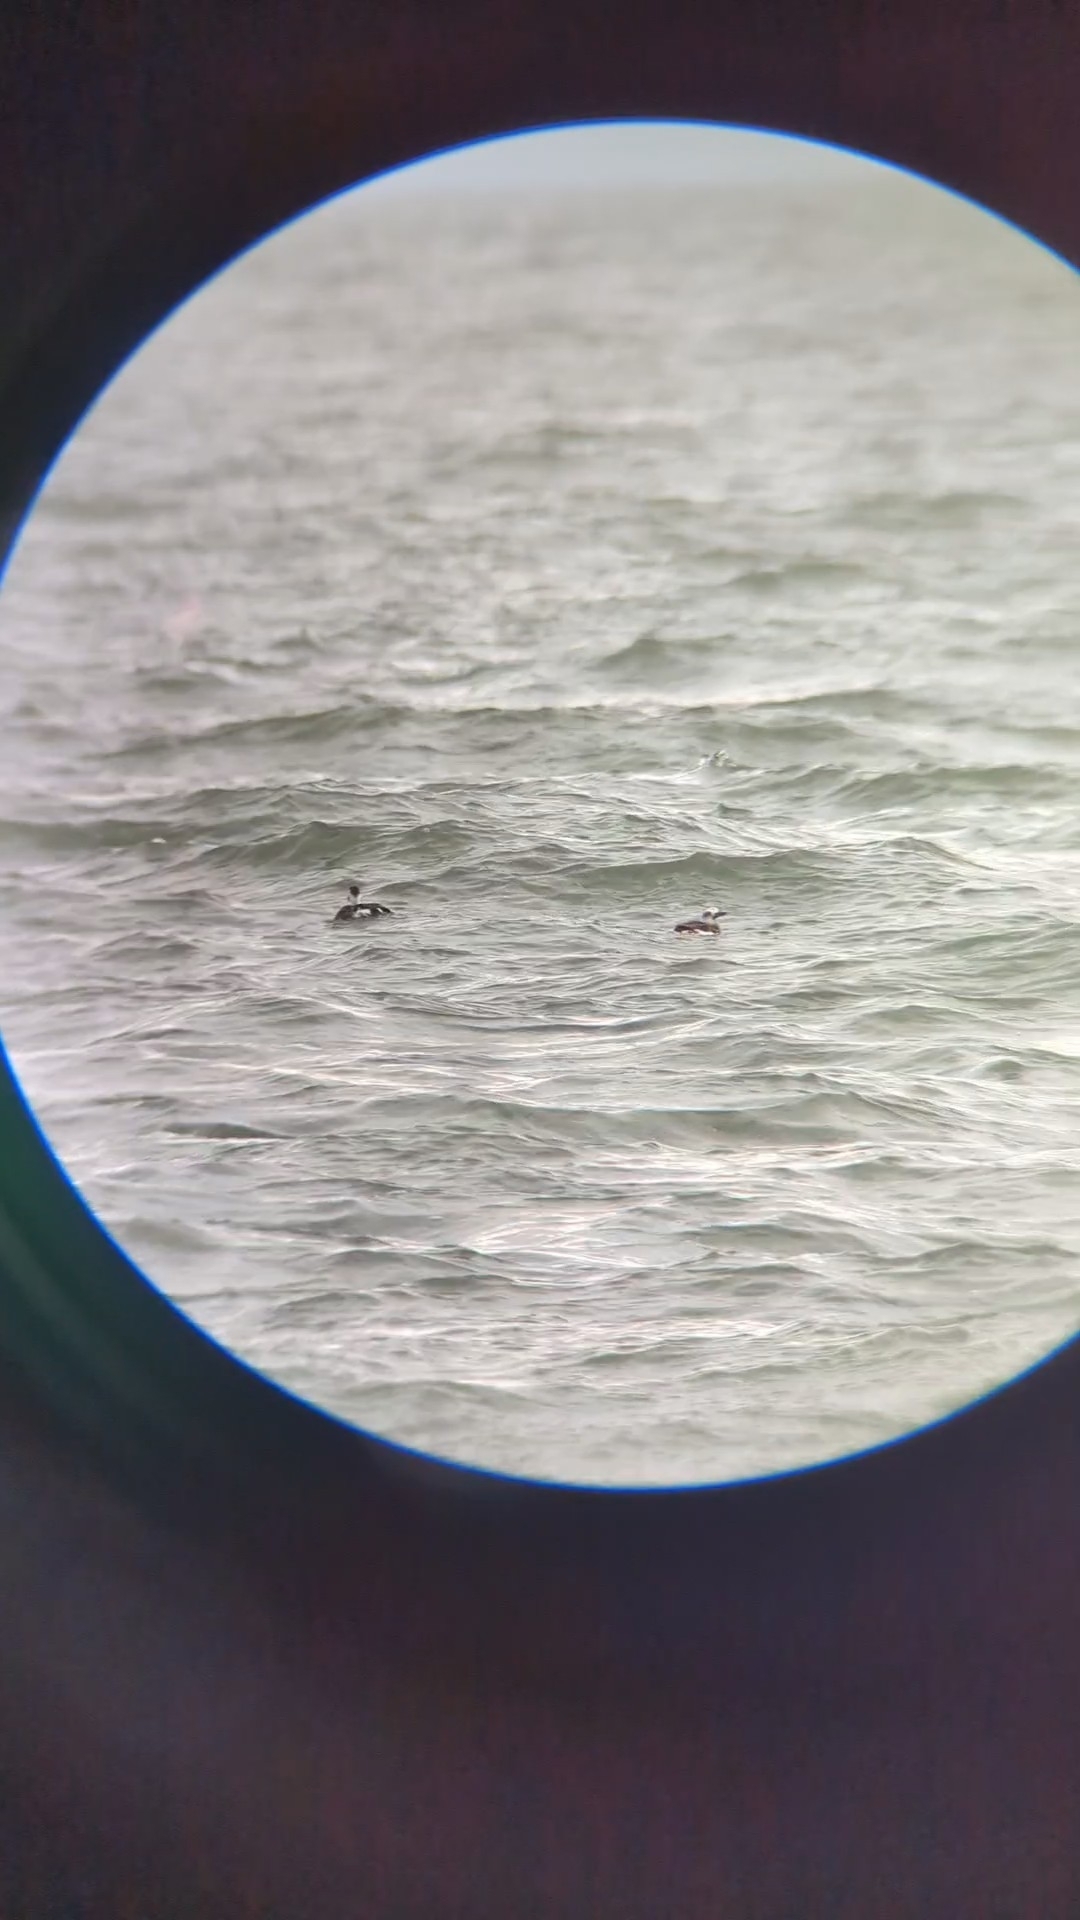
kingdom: Animalia
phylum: Chordata
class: Aves
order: Anseriformes
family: Anatidae
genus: Clangula
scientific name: Clangula hyemalis
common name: Long-tailed duck
